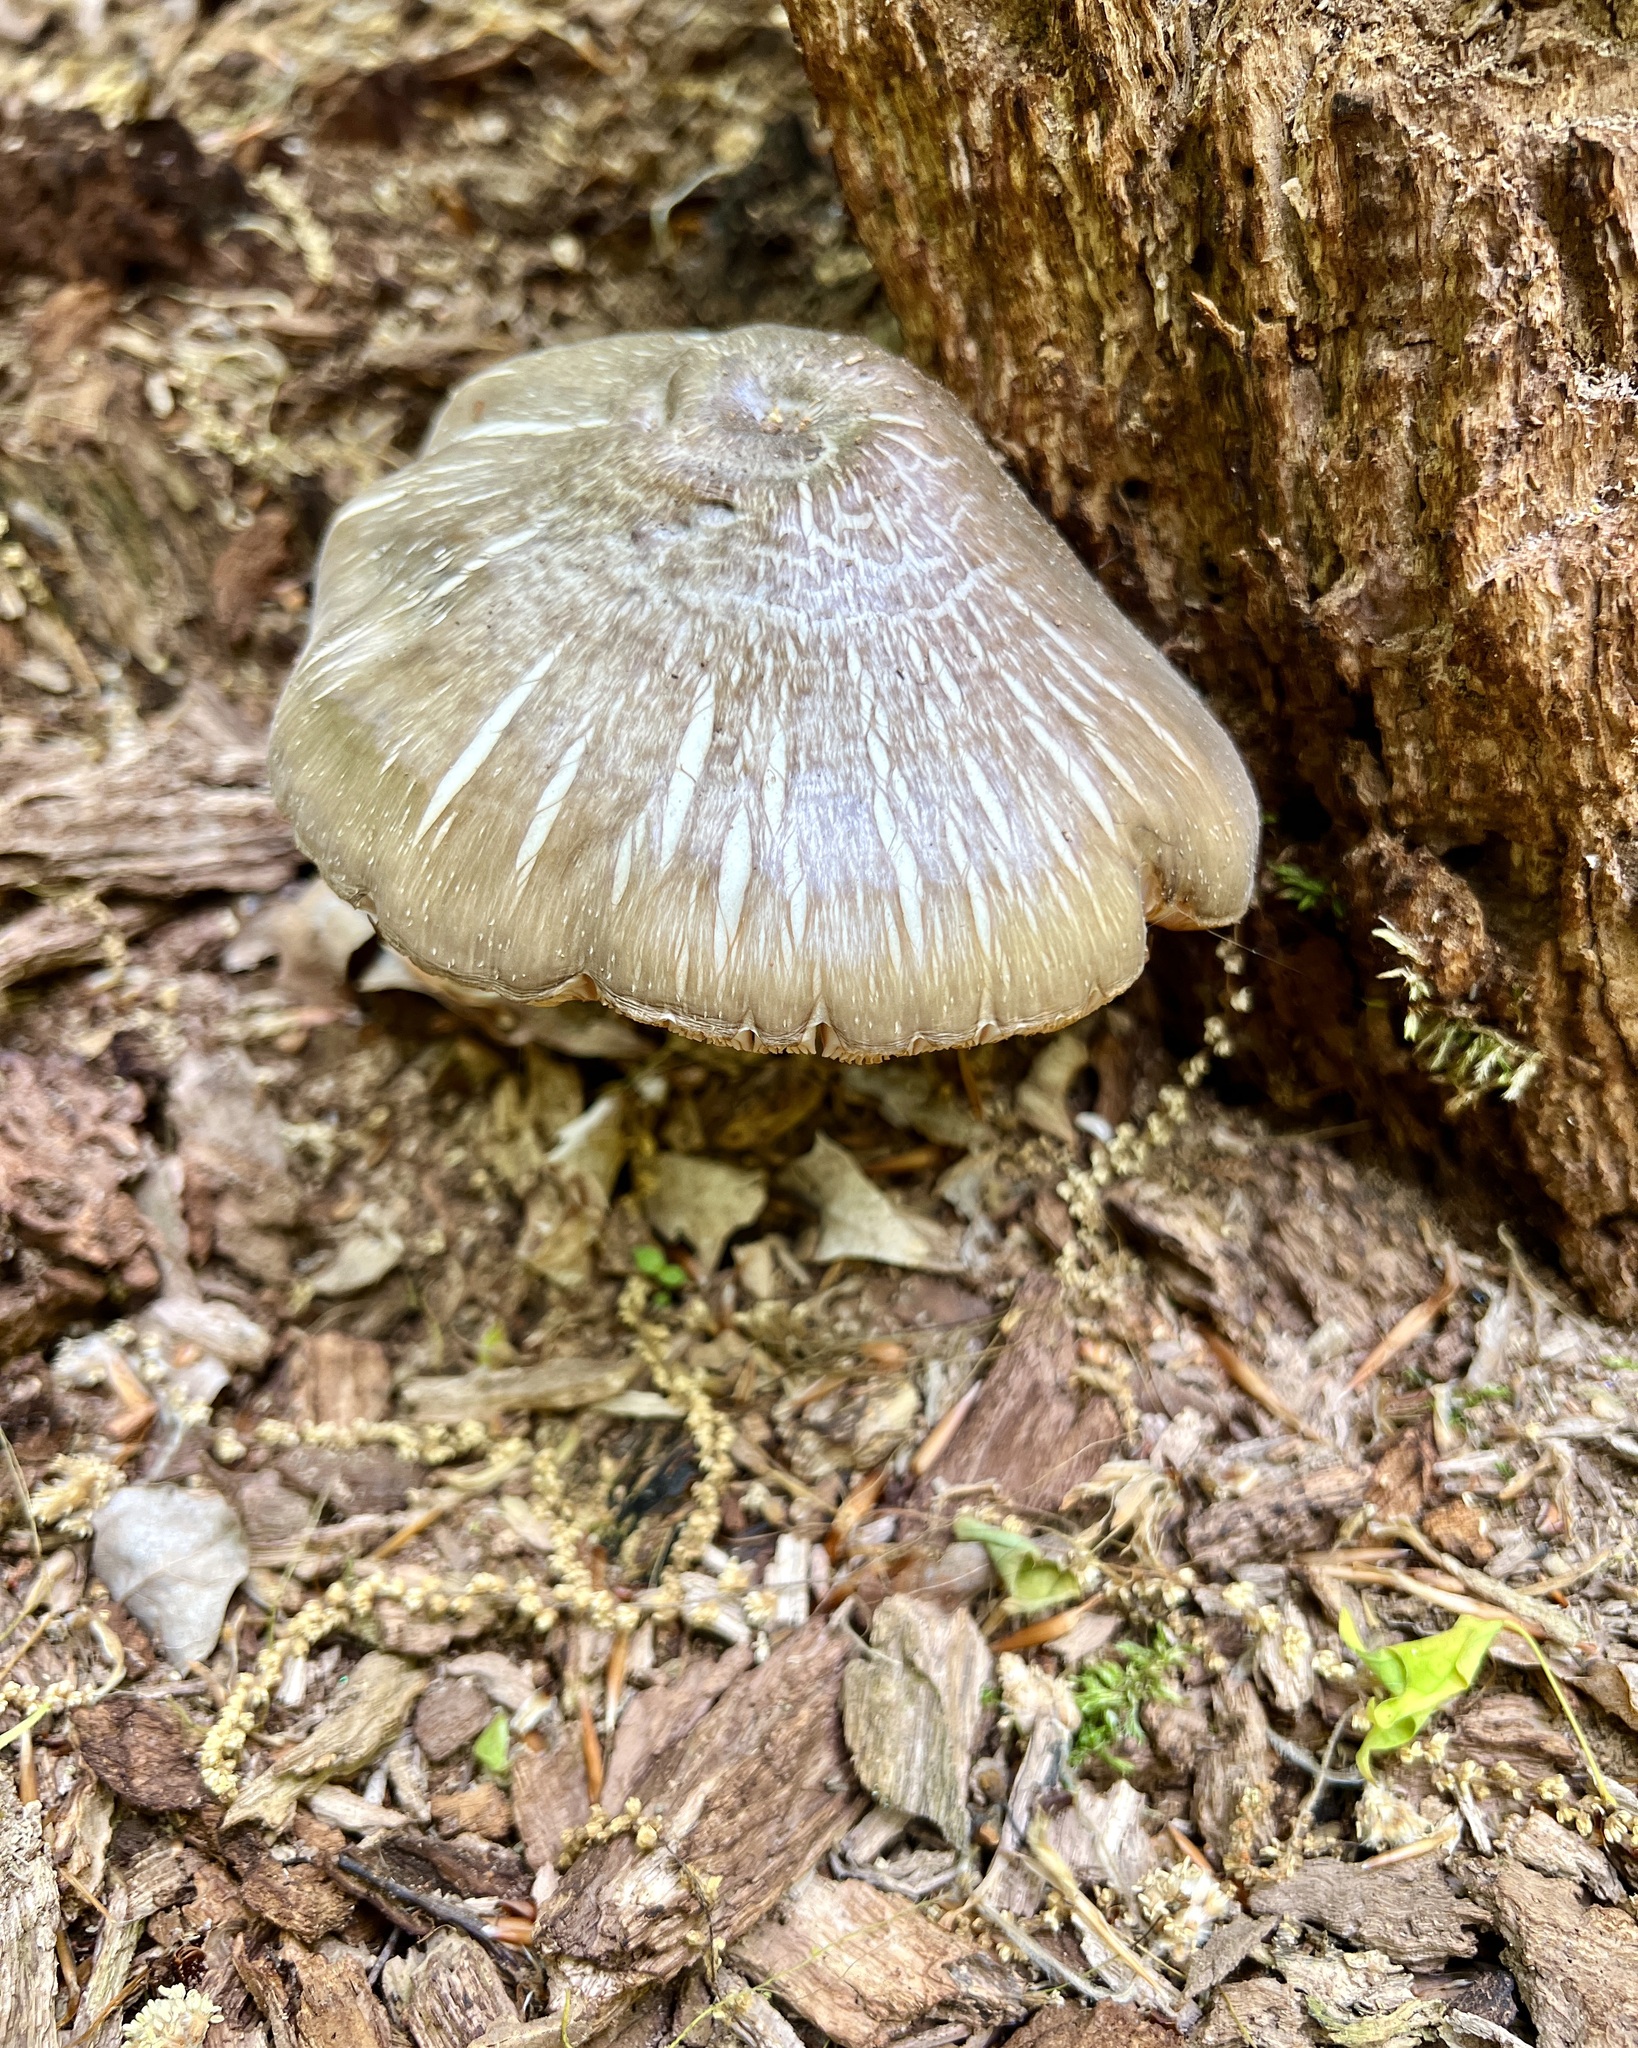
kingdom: Fungi
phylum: Basidiomycota
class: Agaricomycetes
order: Agaricales
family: Pluteaceae
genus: Pluteus
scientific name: Pluteus cervinus
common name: Deer shield
